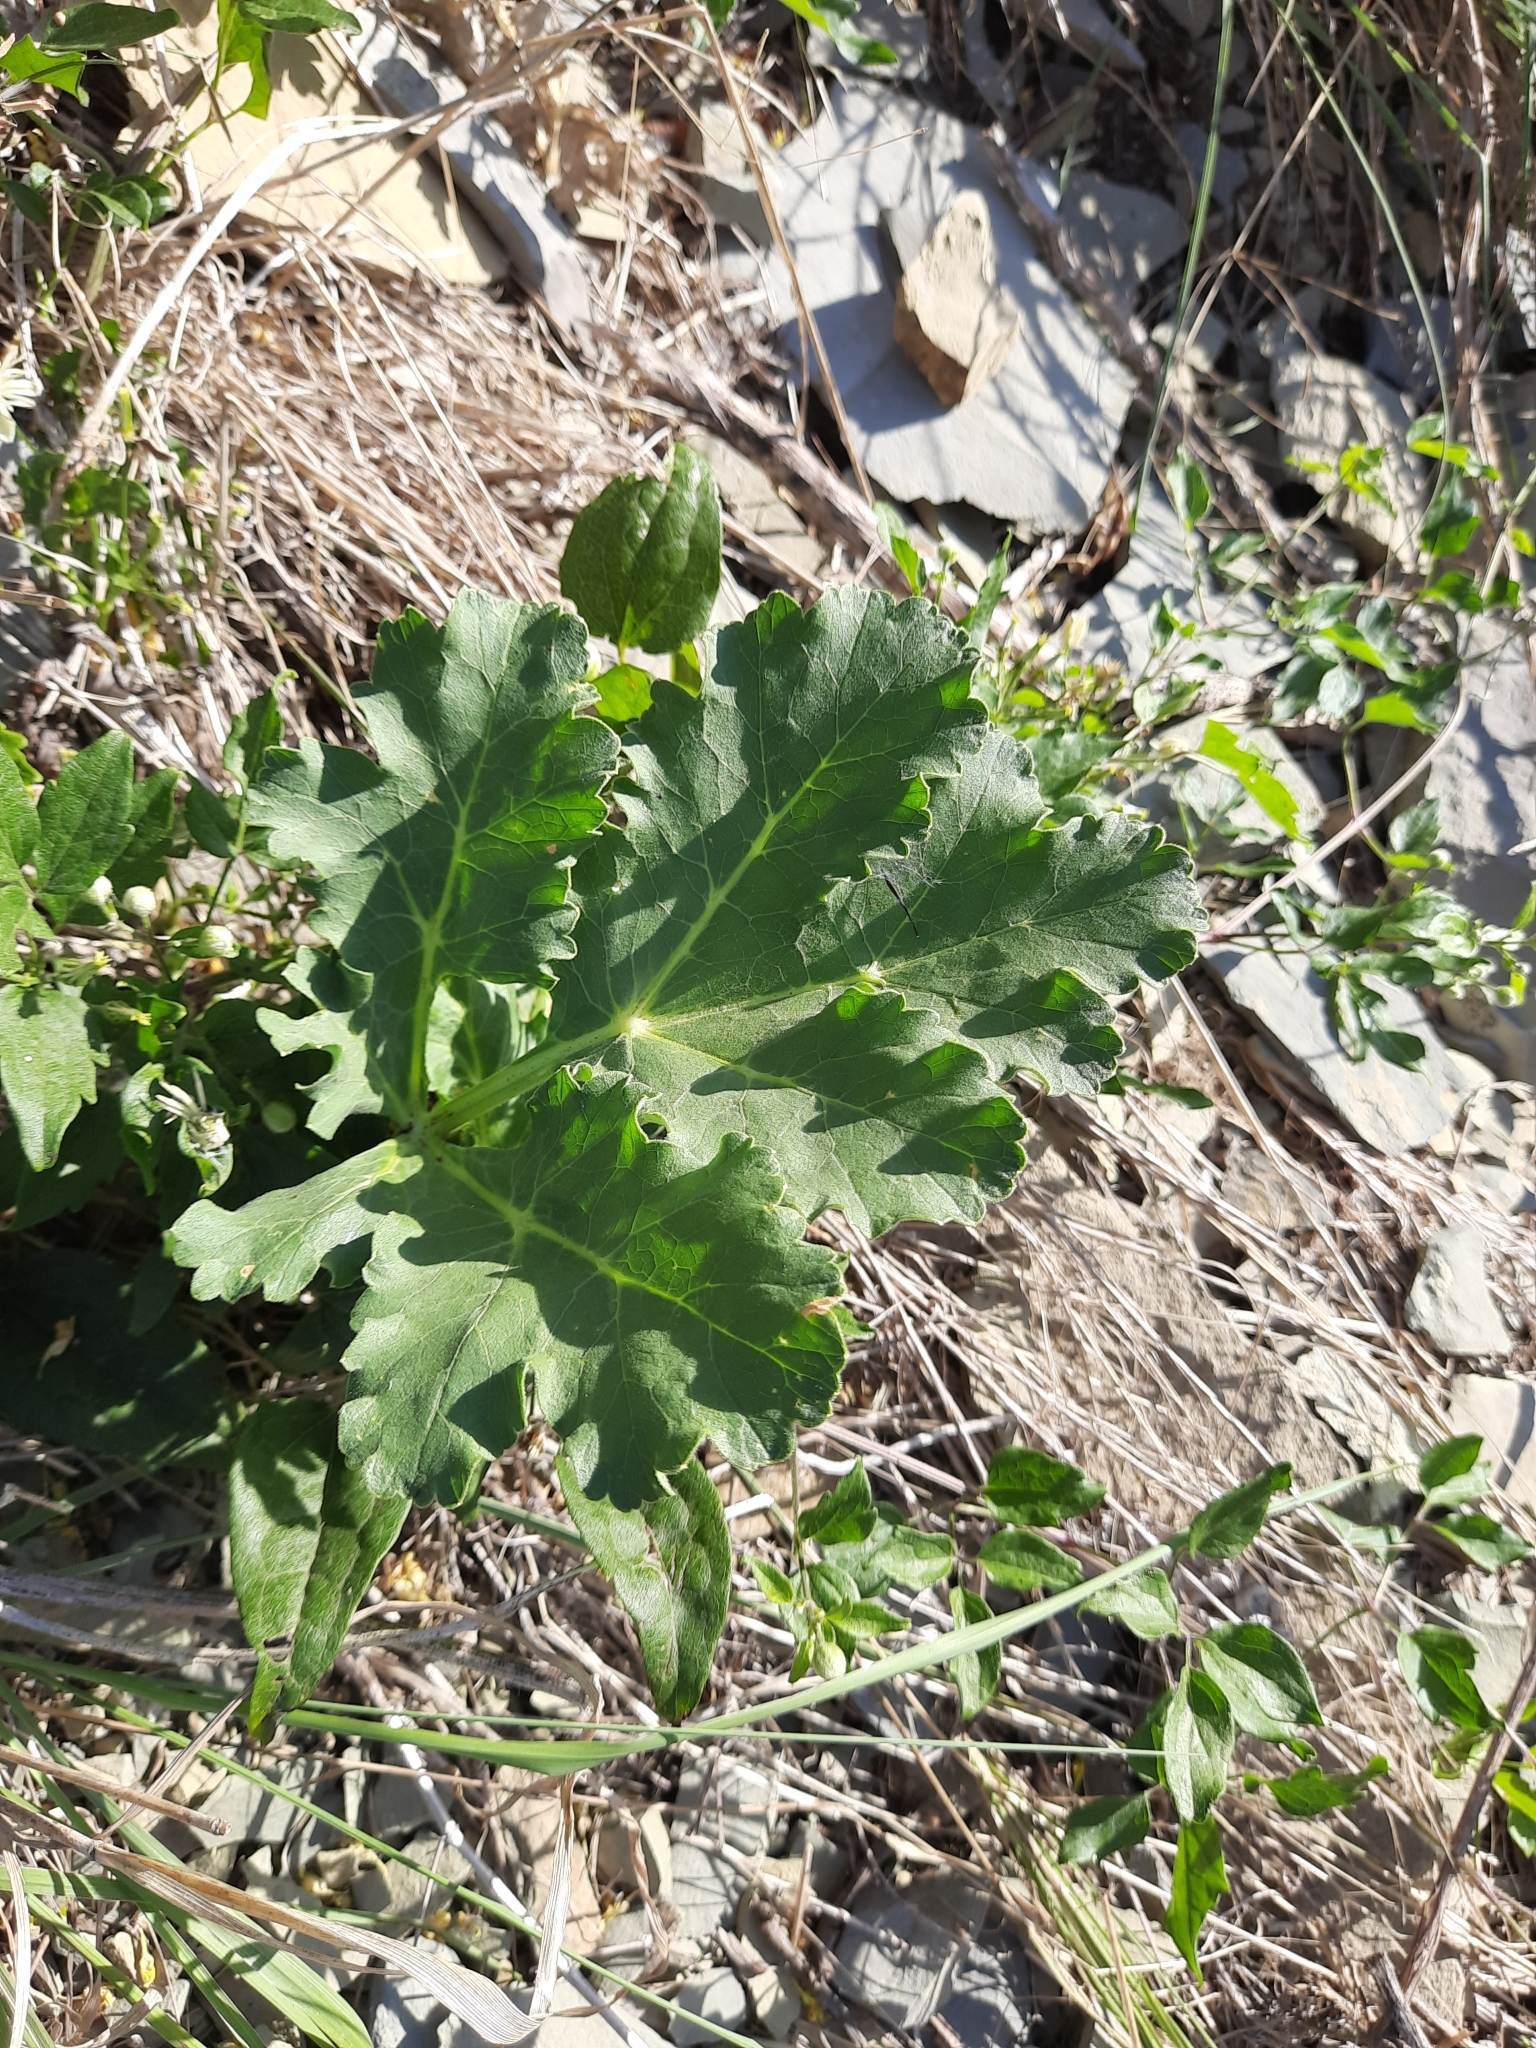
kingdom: Plantae
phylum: Tracheophyta
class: Magnoliopsida
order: Apiales
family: Apiaceae
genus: Heracleum
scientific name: Heracleum stevenii
